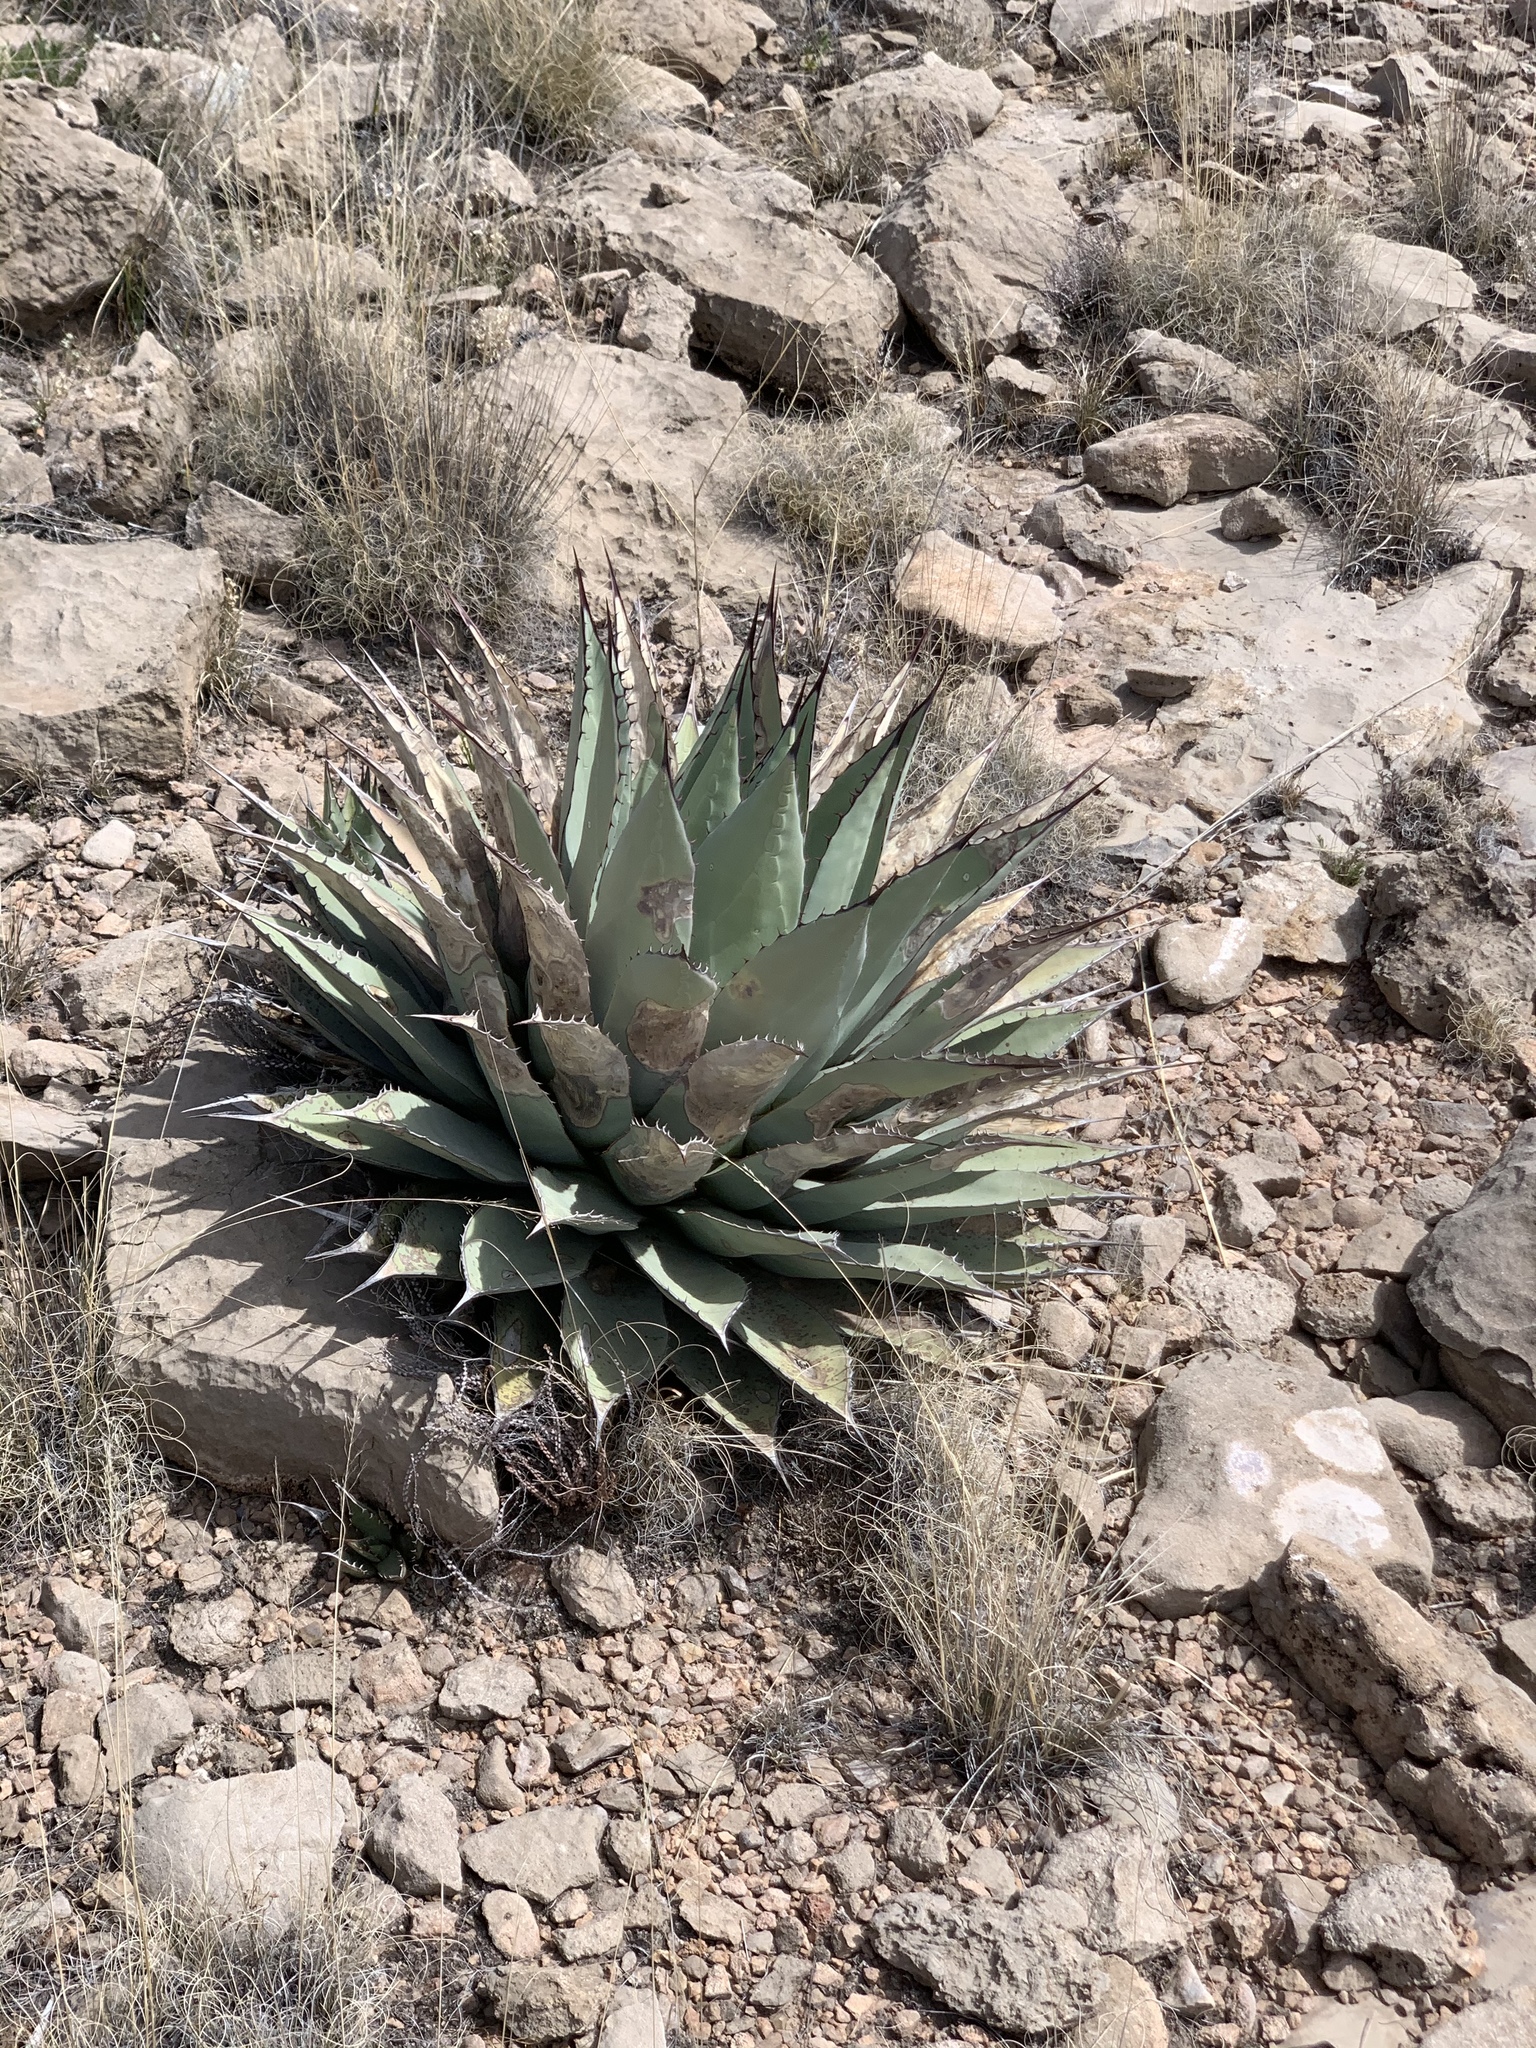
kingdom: Plantae
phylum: Tracheophyta
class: Liliopsida
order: Asparagales
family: Asparagaceae
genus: Agave
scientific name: Agave parryi
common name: Parry's agave
